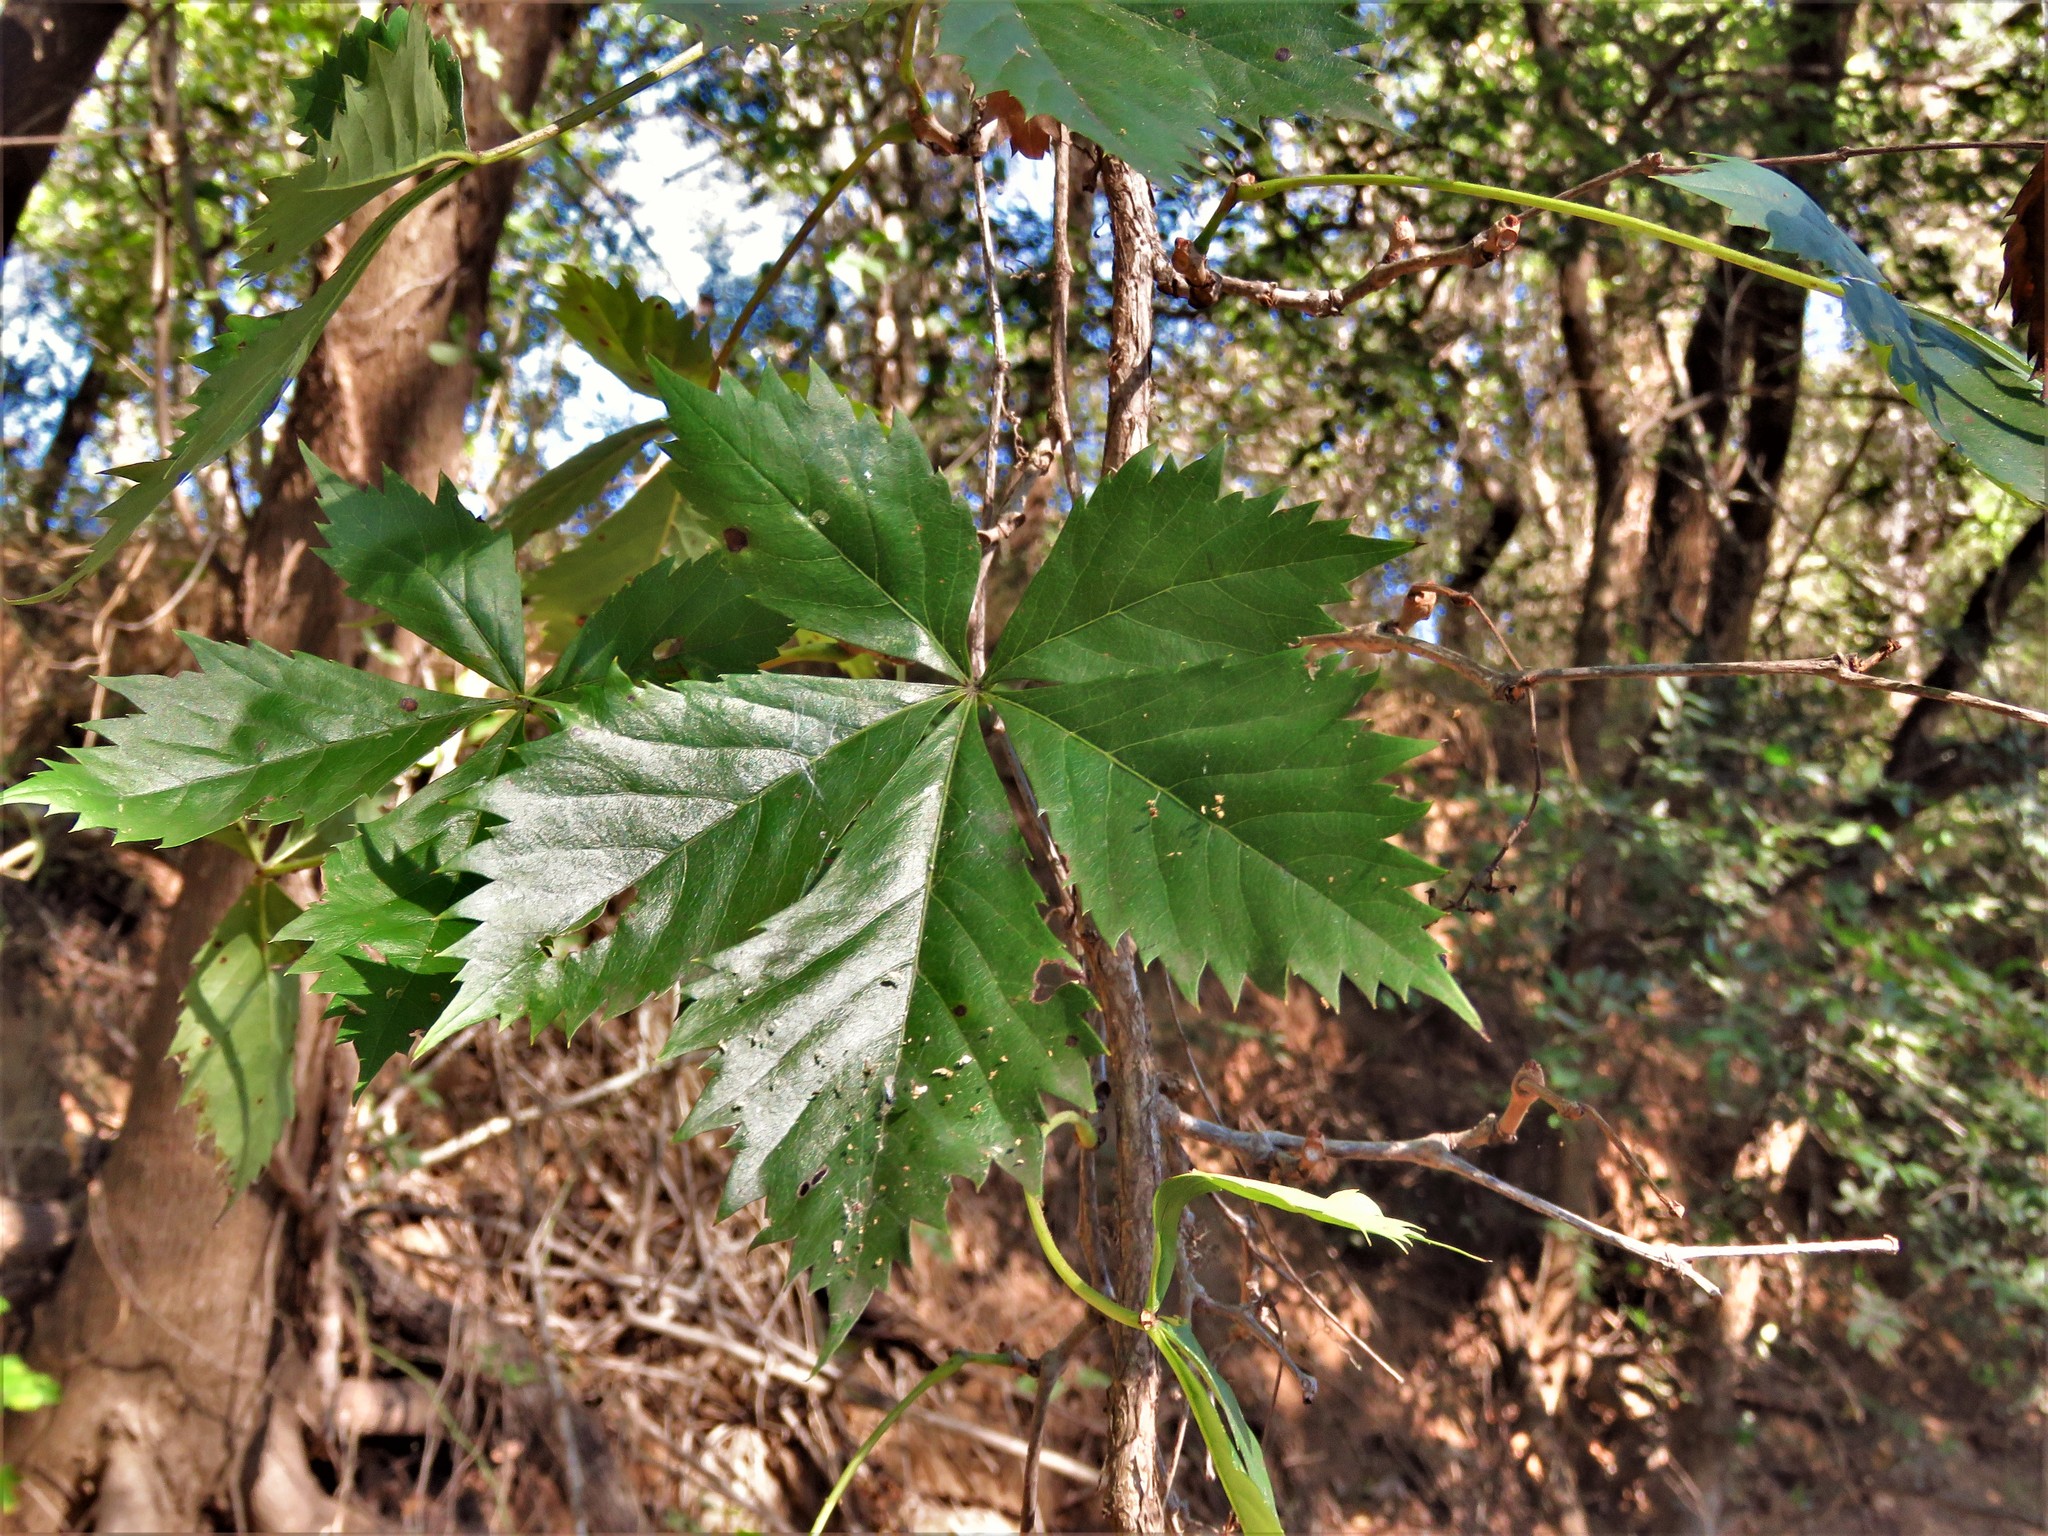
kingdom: Plantae
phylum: Tracheophyta
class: Magnoliopsida
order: Vitales
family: Vitaceae
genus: Parthenocissus
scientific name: Parthenocissus quinquefolia
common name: Virginia-creeper
